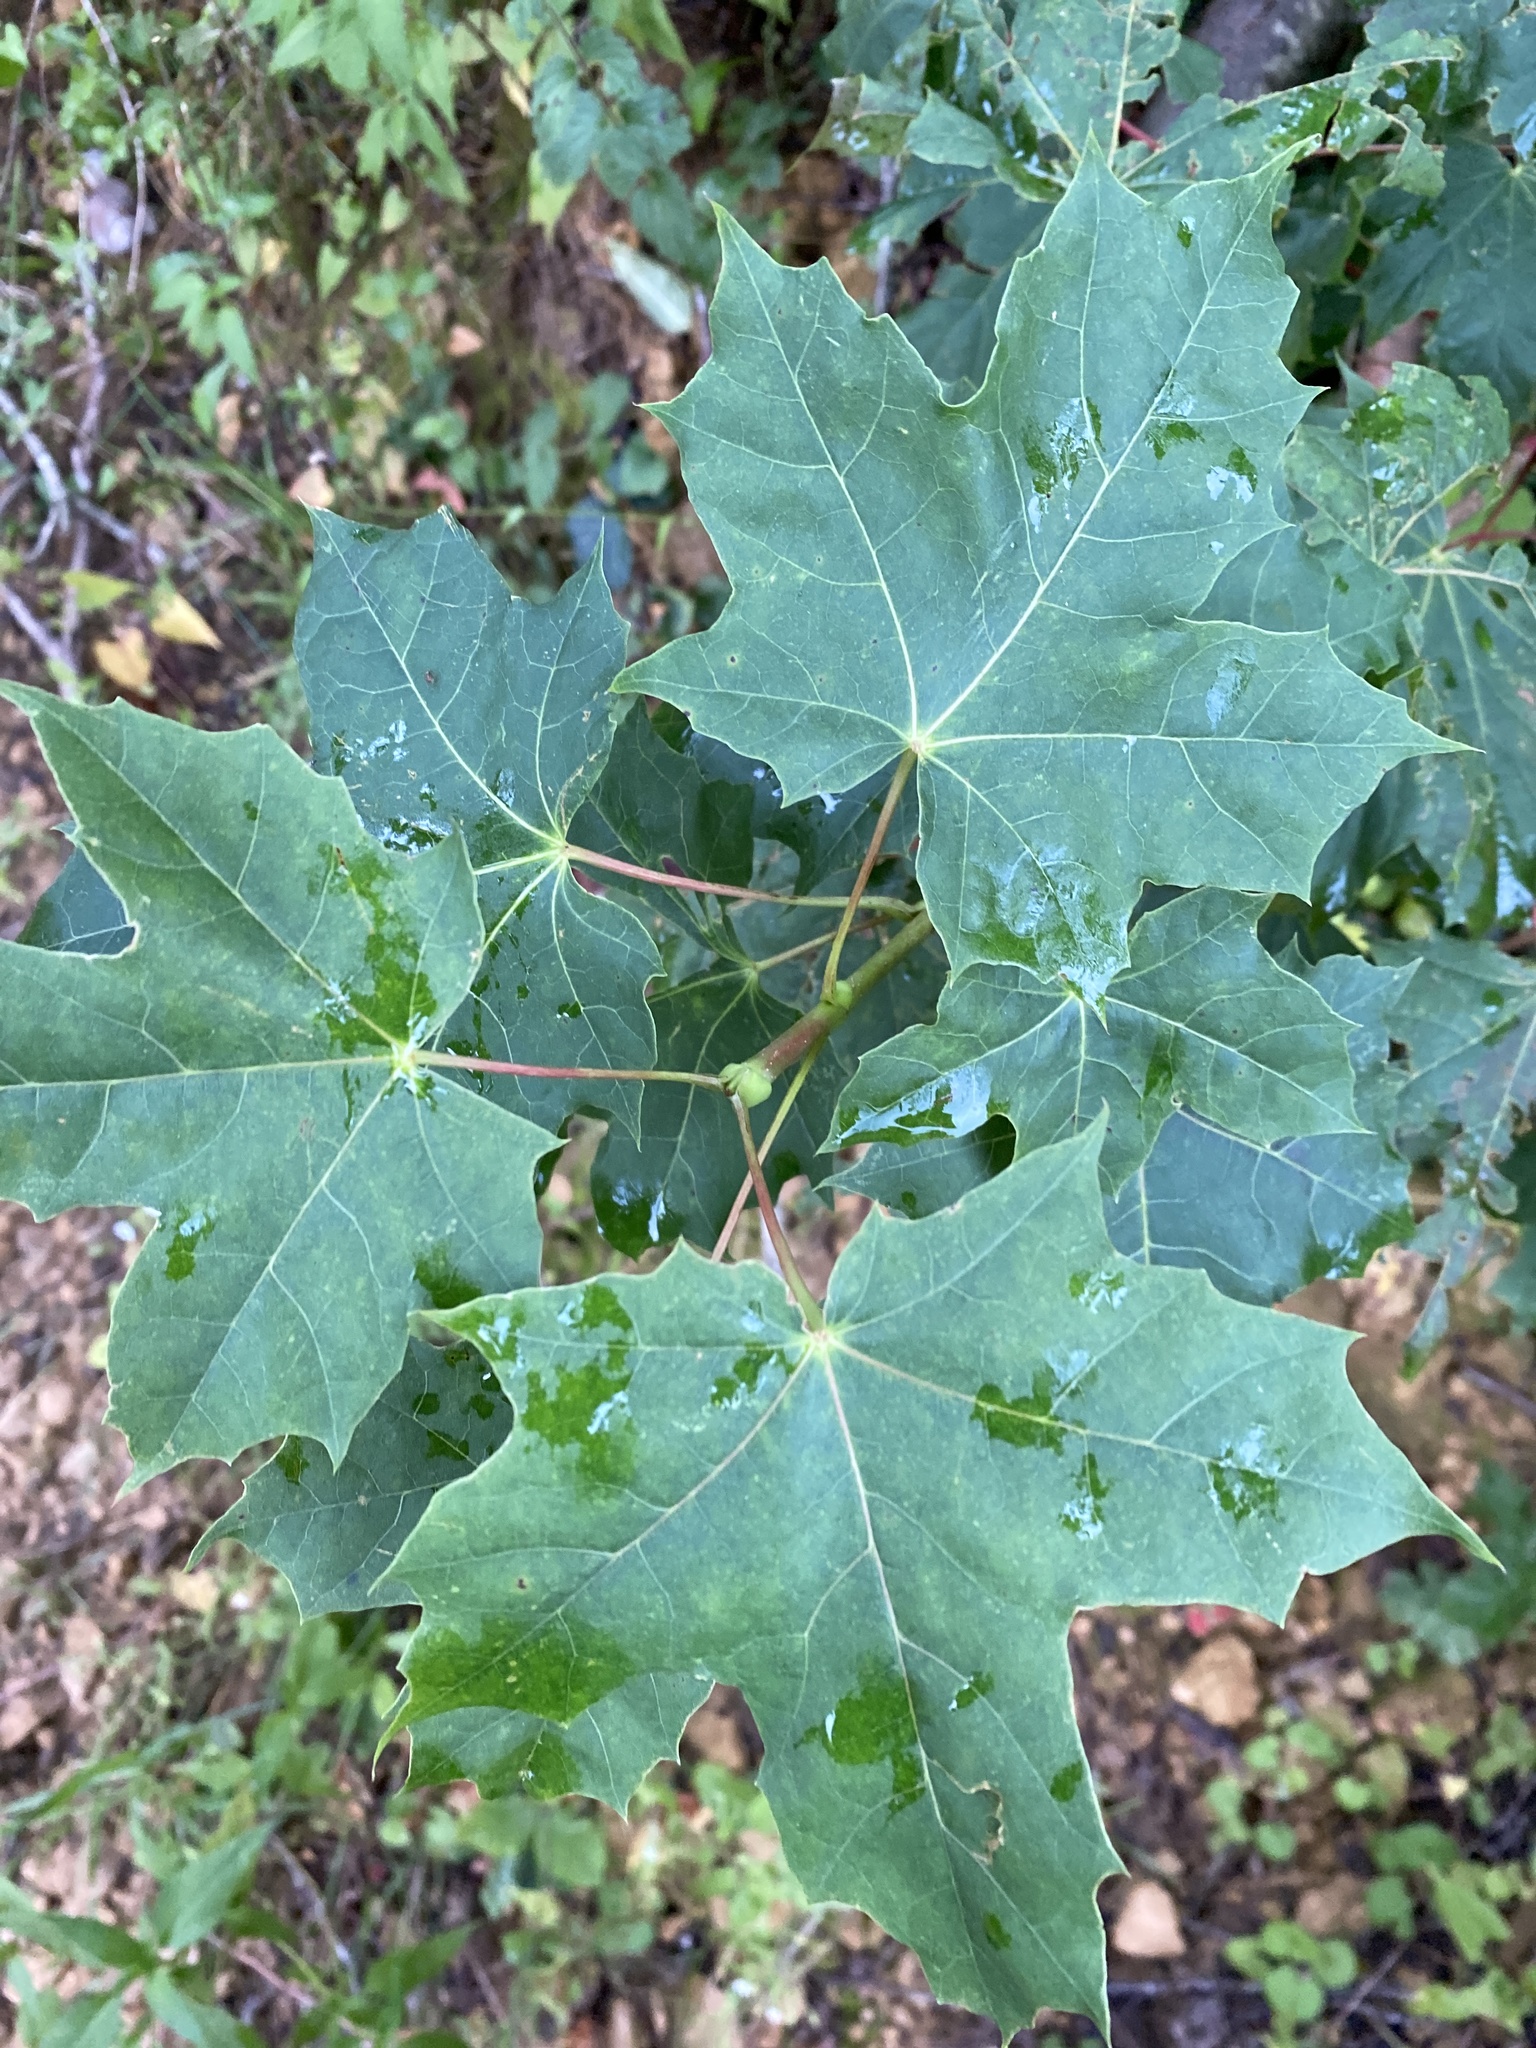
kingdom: Plantae
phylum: Tracheophyta
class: Magnoliopsida
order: Sapindales
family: Sapindaceae
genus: Acer
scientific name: Acer platanoides
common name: Norway maple
